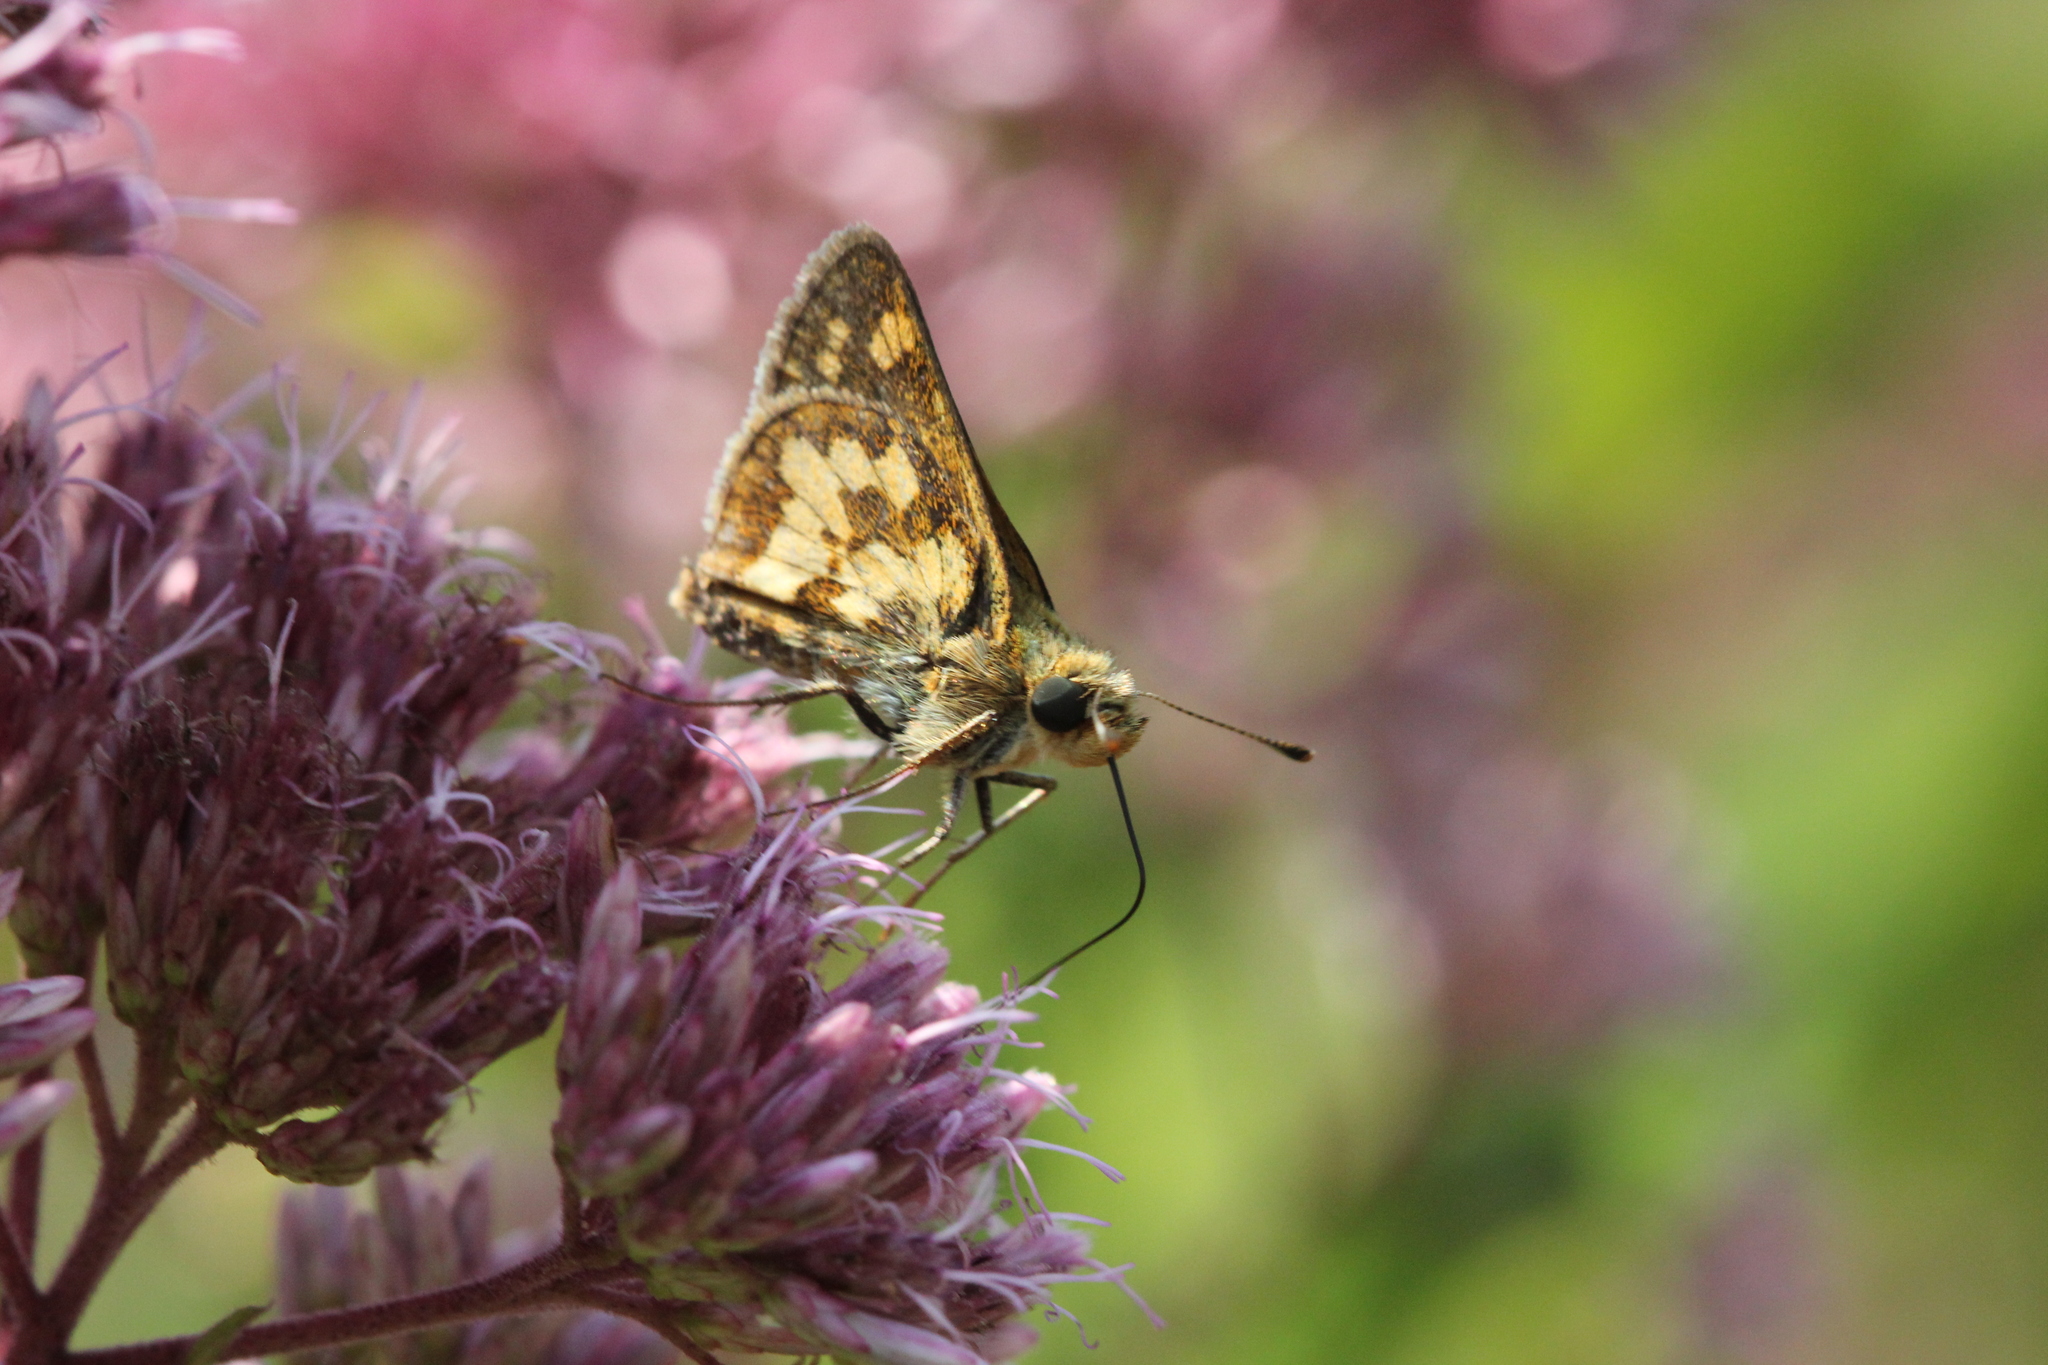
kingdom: Animalia
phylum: Arthropoda
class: Insecta
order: Lepidoptera
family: Hesperiidae
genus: Polites
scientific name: Polites coras
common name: Peck's skipper
